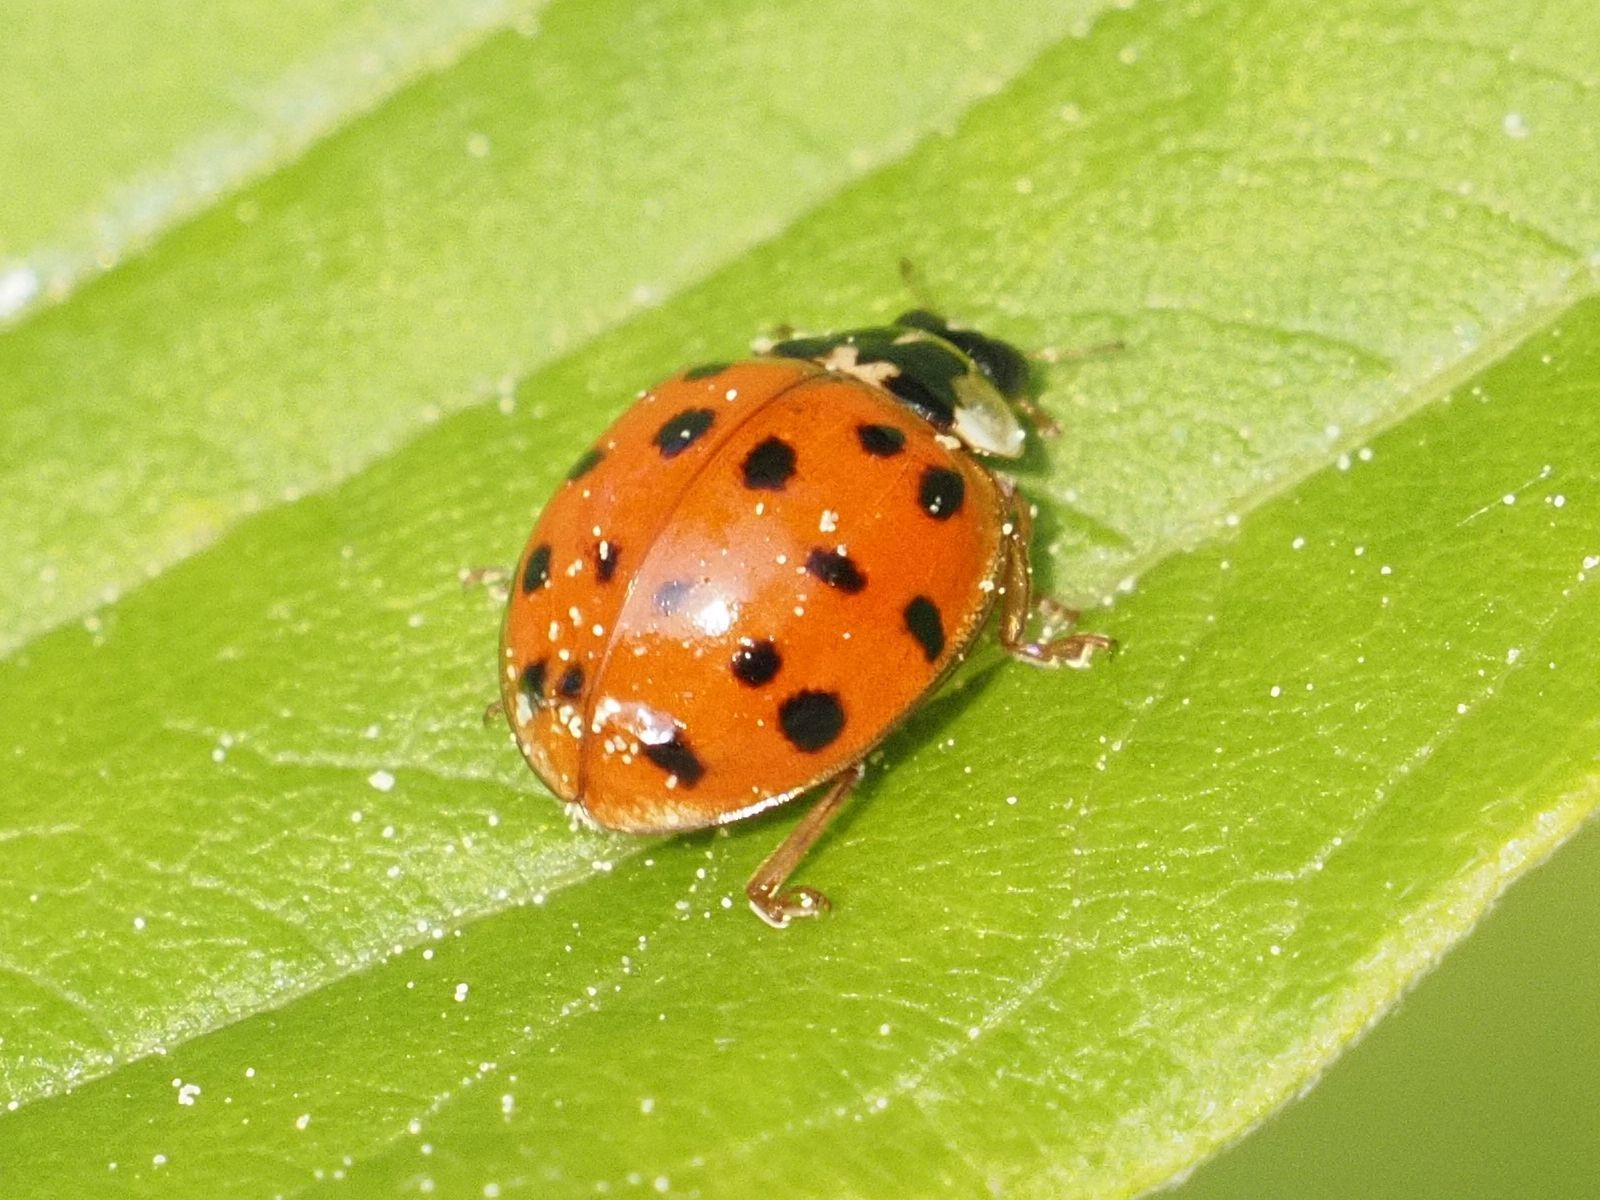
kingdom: Animalia
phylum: Arthropoda
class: Insecta
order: Coleoptera
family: Coccinellidae
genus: Harmonia
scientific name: Harmonia axyridis
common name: Harlequin ladybird
